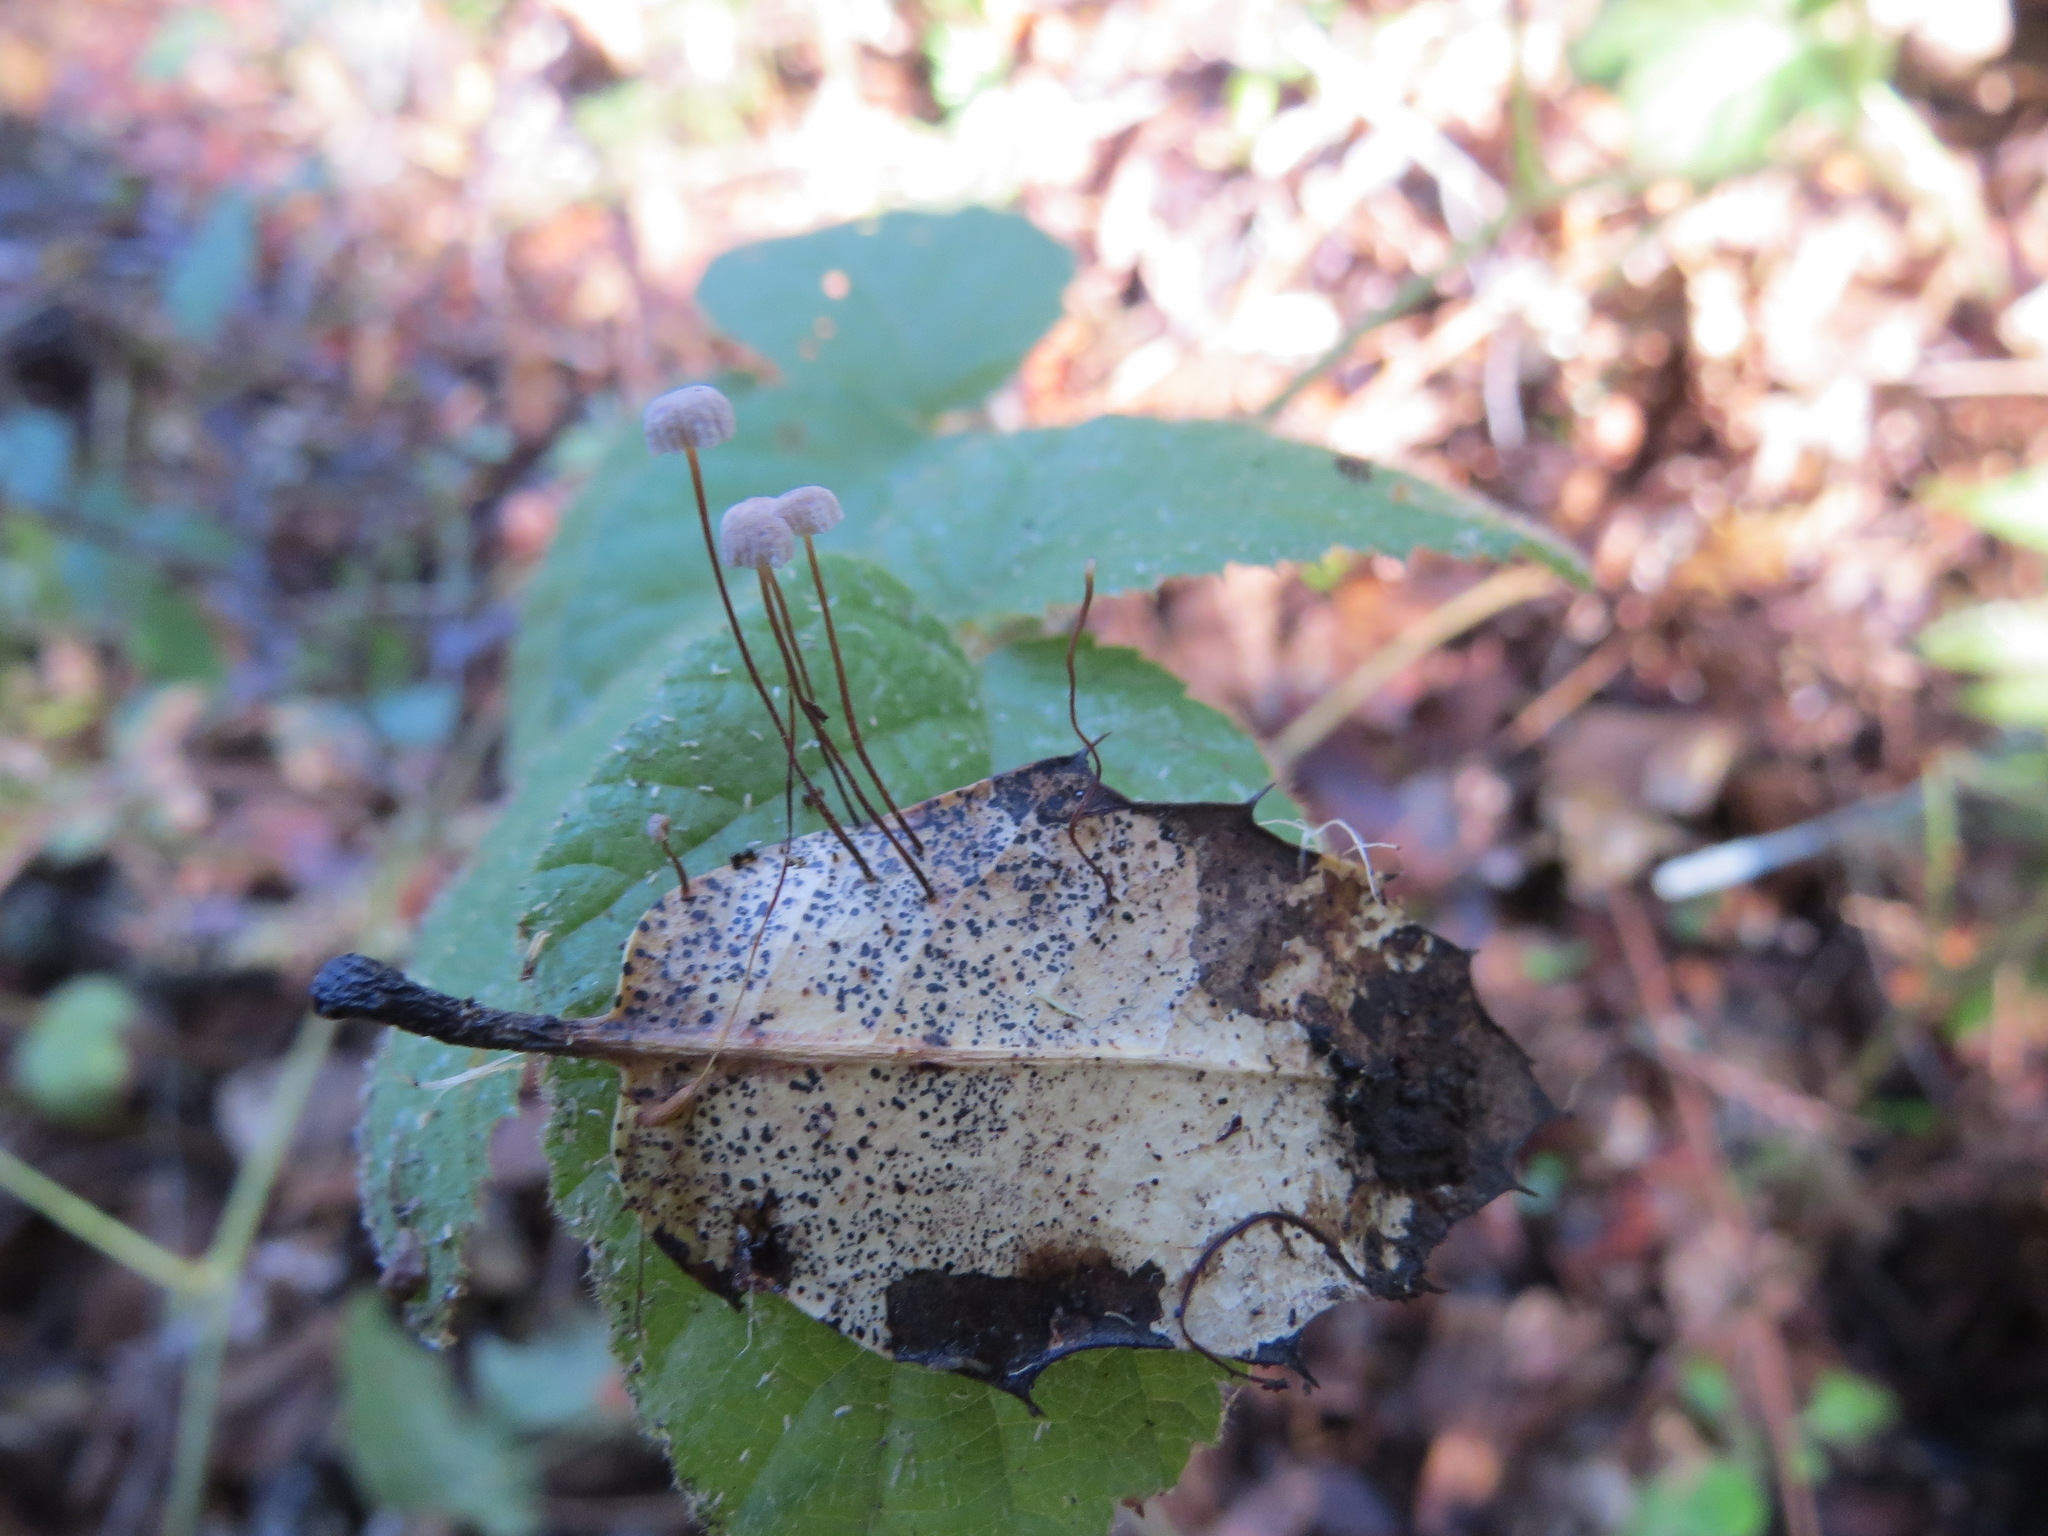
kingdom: Fungi
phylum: Basidiomycota
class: Agaricomycetes
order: Agaricales
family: Omphalotaceae
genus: Collybiopsis
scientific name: Collybiopsis quercophila
